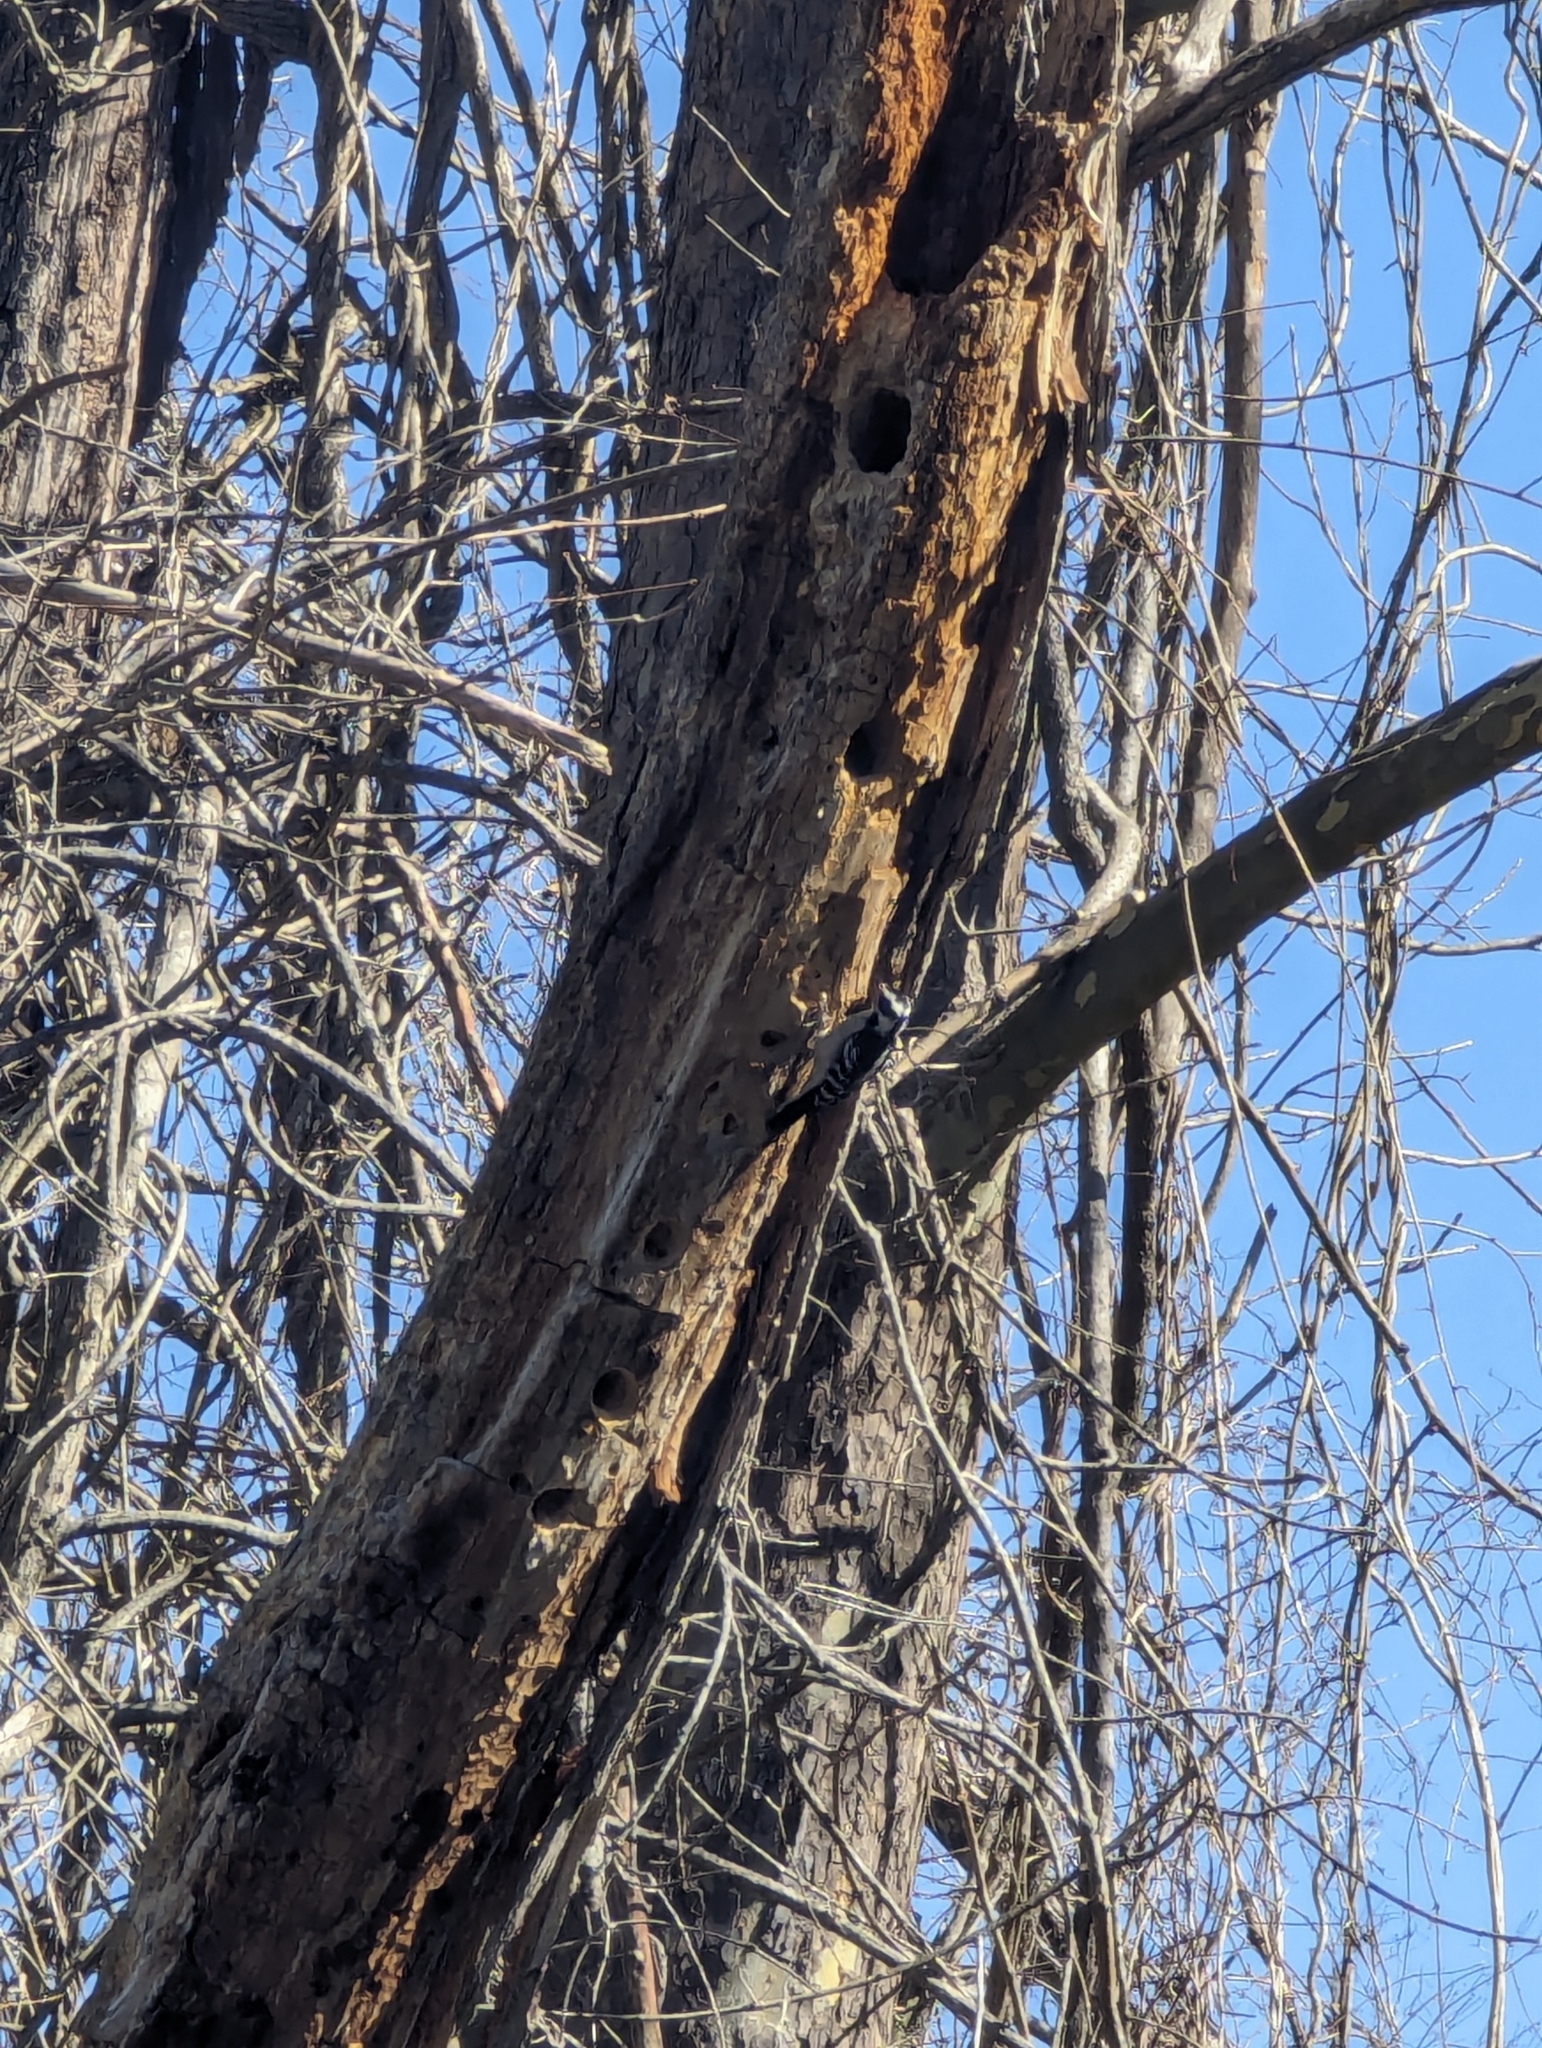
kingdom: Animalia
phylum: Chordata
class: Aves
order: Piciformes
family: Picidae
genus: Dryobates
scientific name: Dryobates pubescens
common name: Downy woodpecker
